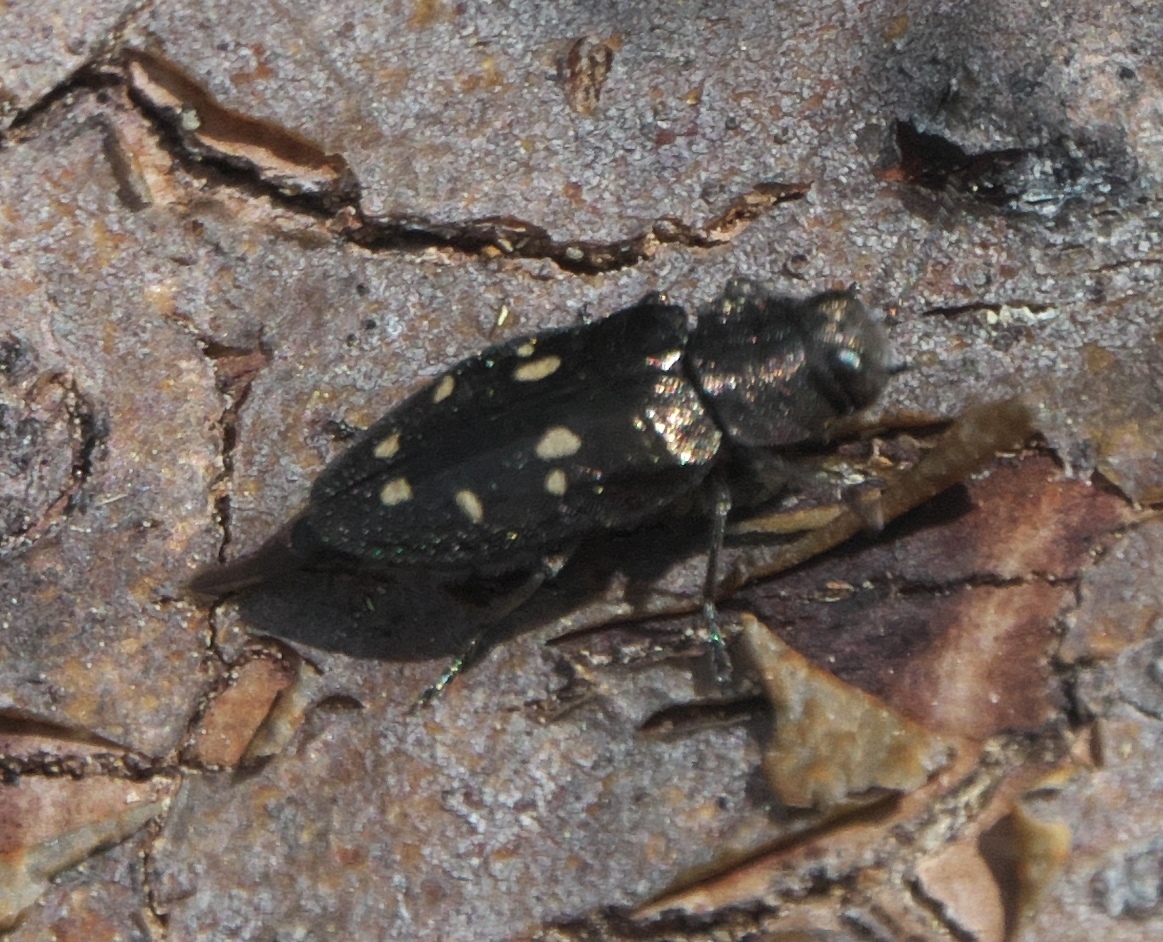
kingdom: Animalia
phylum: Arthropoda
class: Insecta
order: Coleoptera
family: Buprestidae
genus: Phaenops
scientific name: Phaenops lecontei
